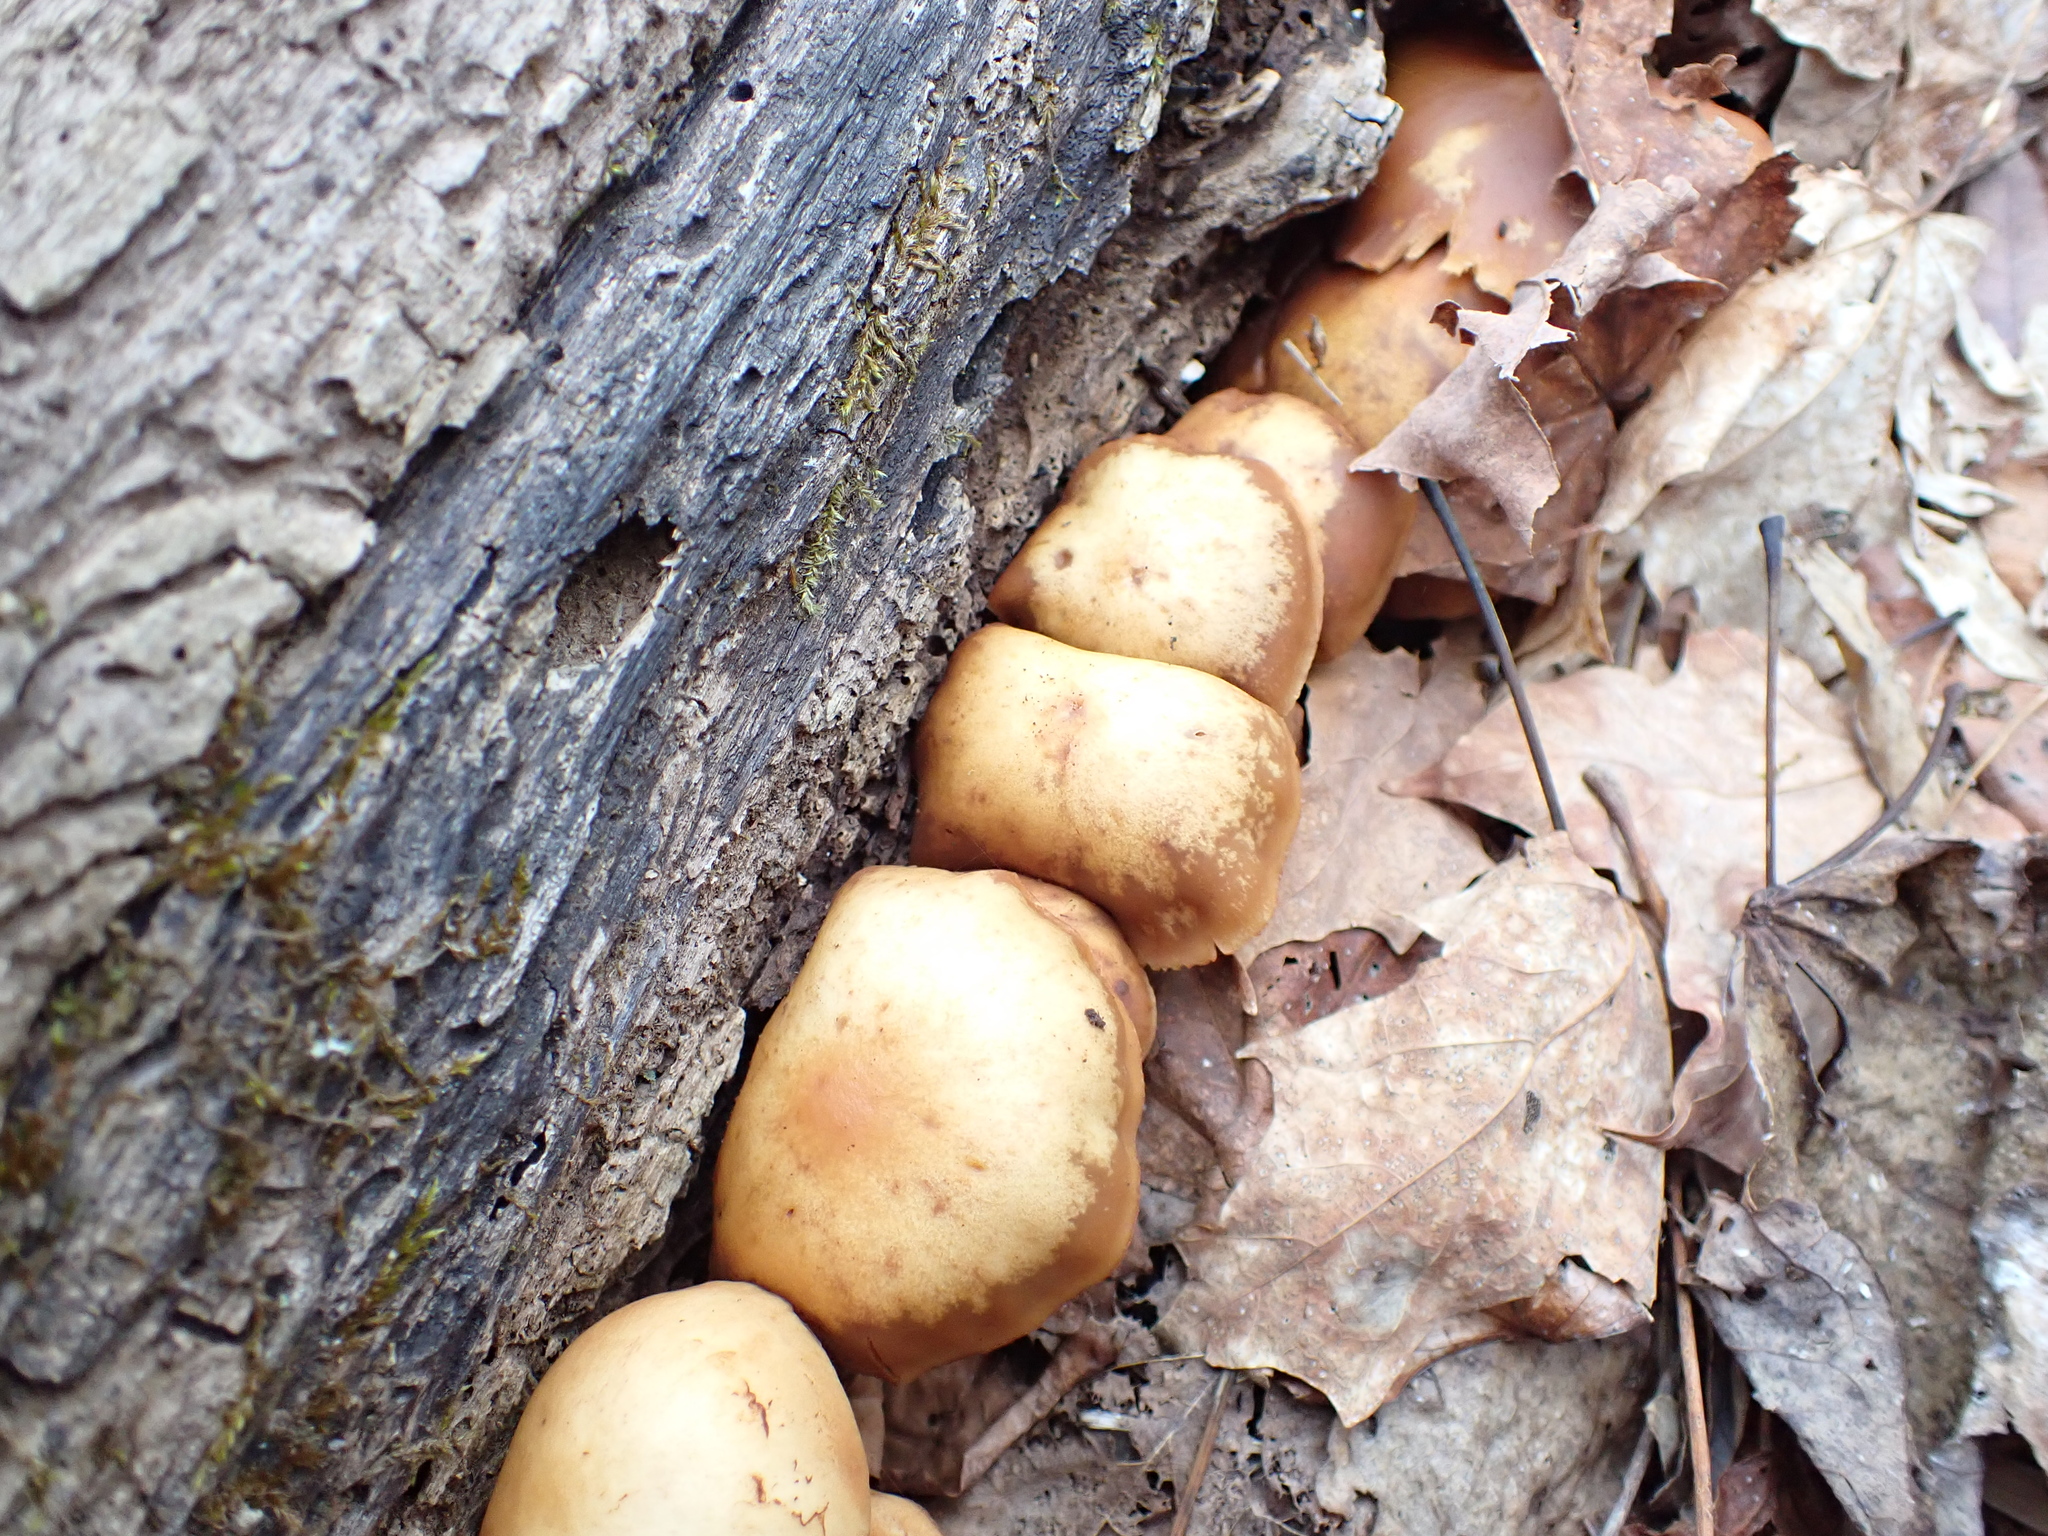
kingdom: Fungi
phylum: Basidiomycota
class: Agaricomycetes
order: Agaricales
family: Hymenogastraceae
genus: Galerina
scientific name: Galerina marginata
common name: Funeral bell
